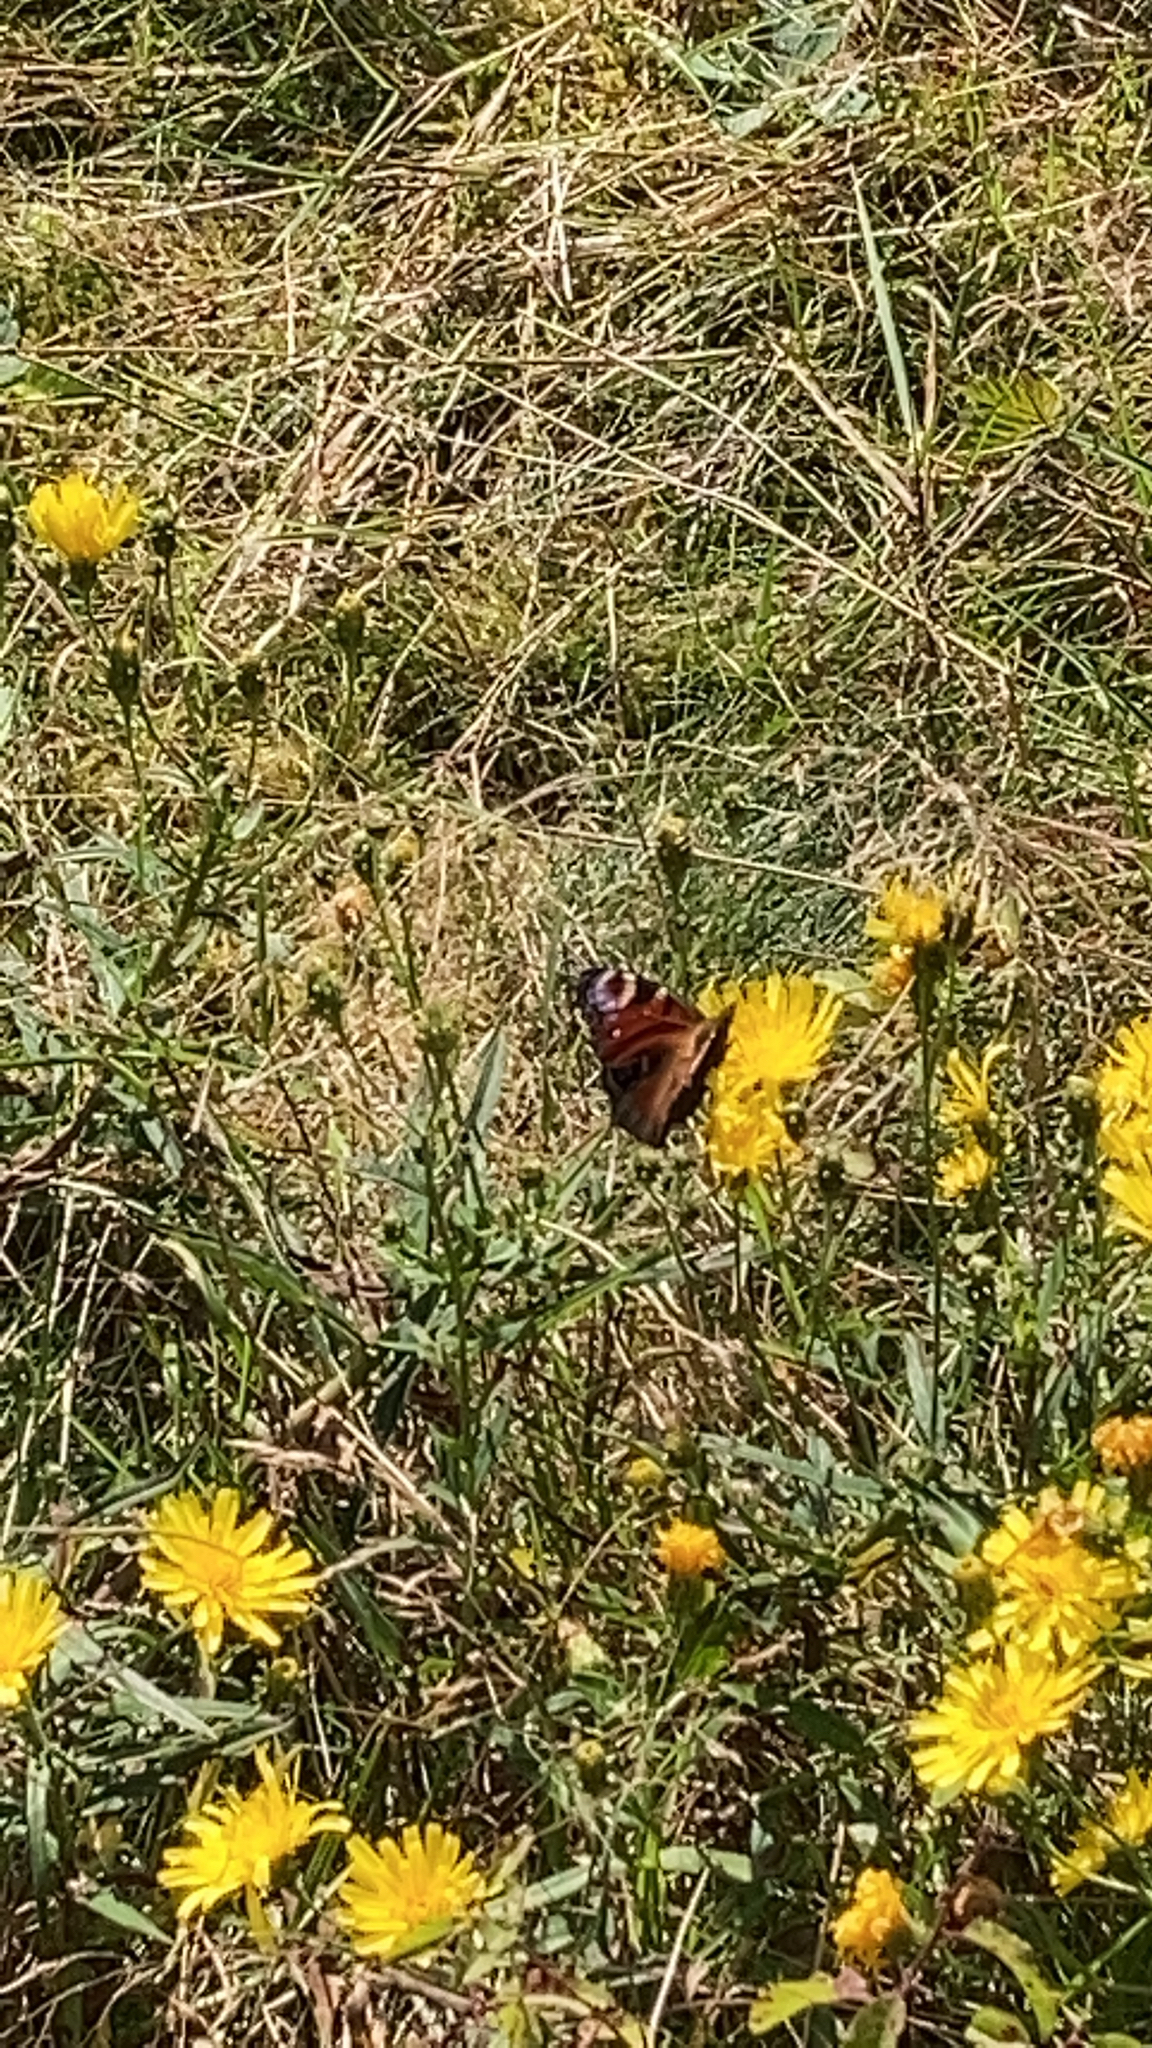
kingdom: Animalia
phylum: Arthropoda
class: Insecta
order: Lepidoptera
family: Nymphalidae
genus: Aglais
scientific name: Aglais io
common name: Peacock
